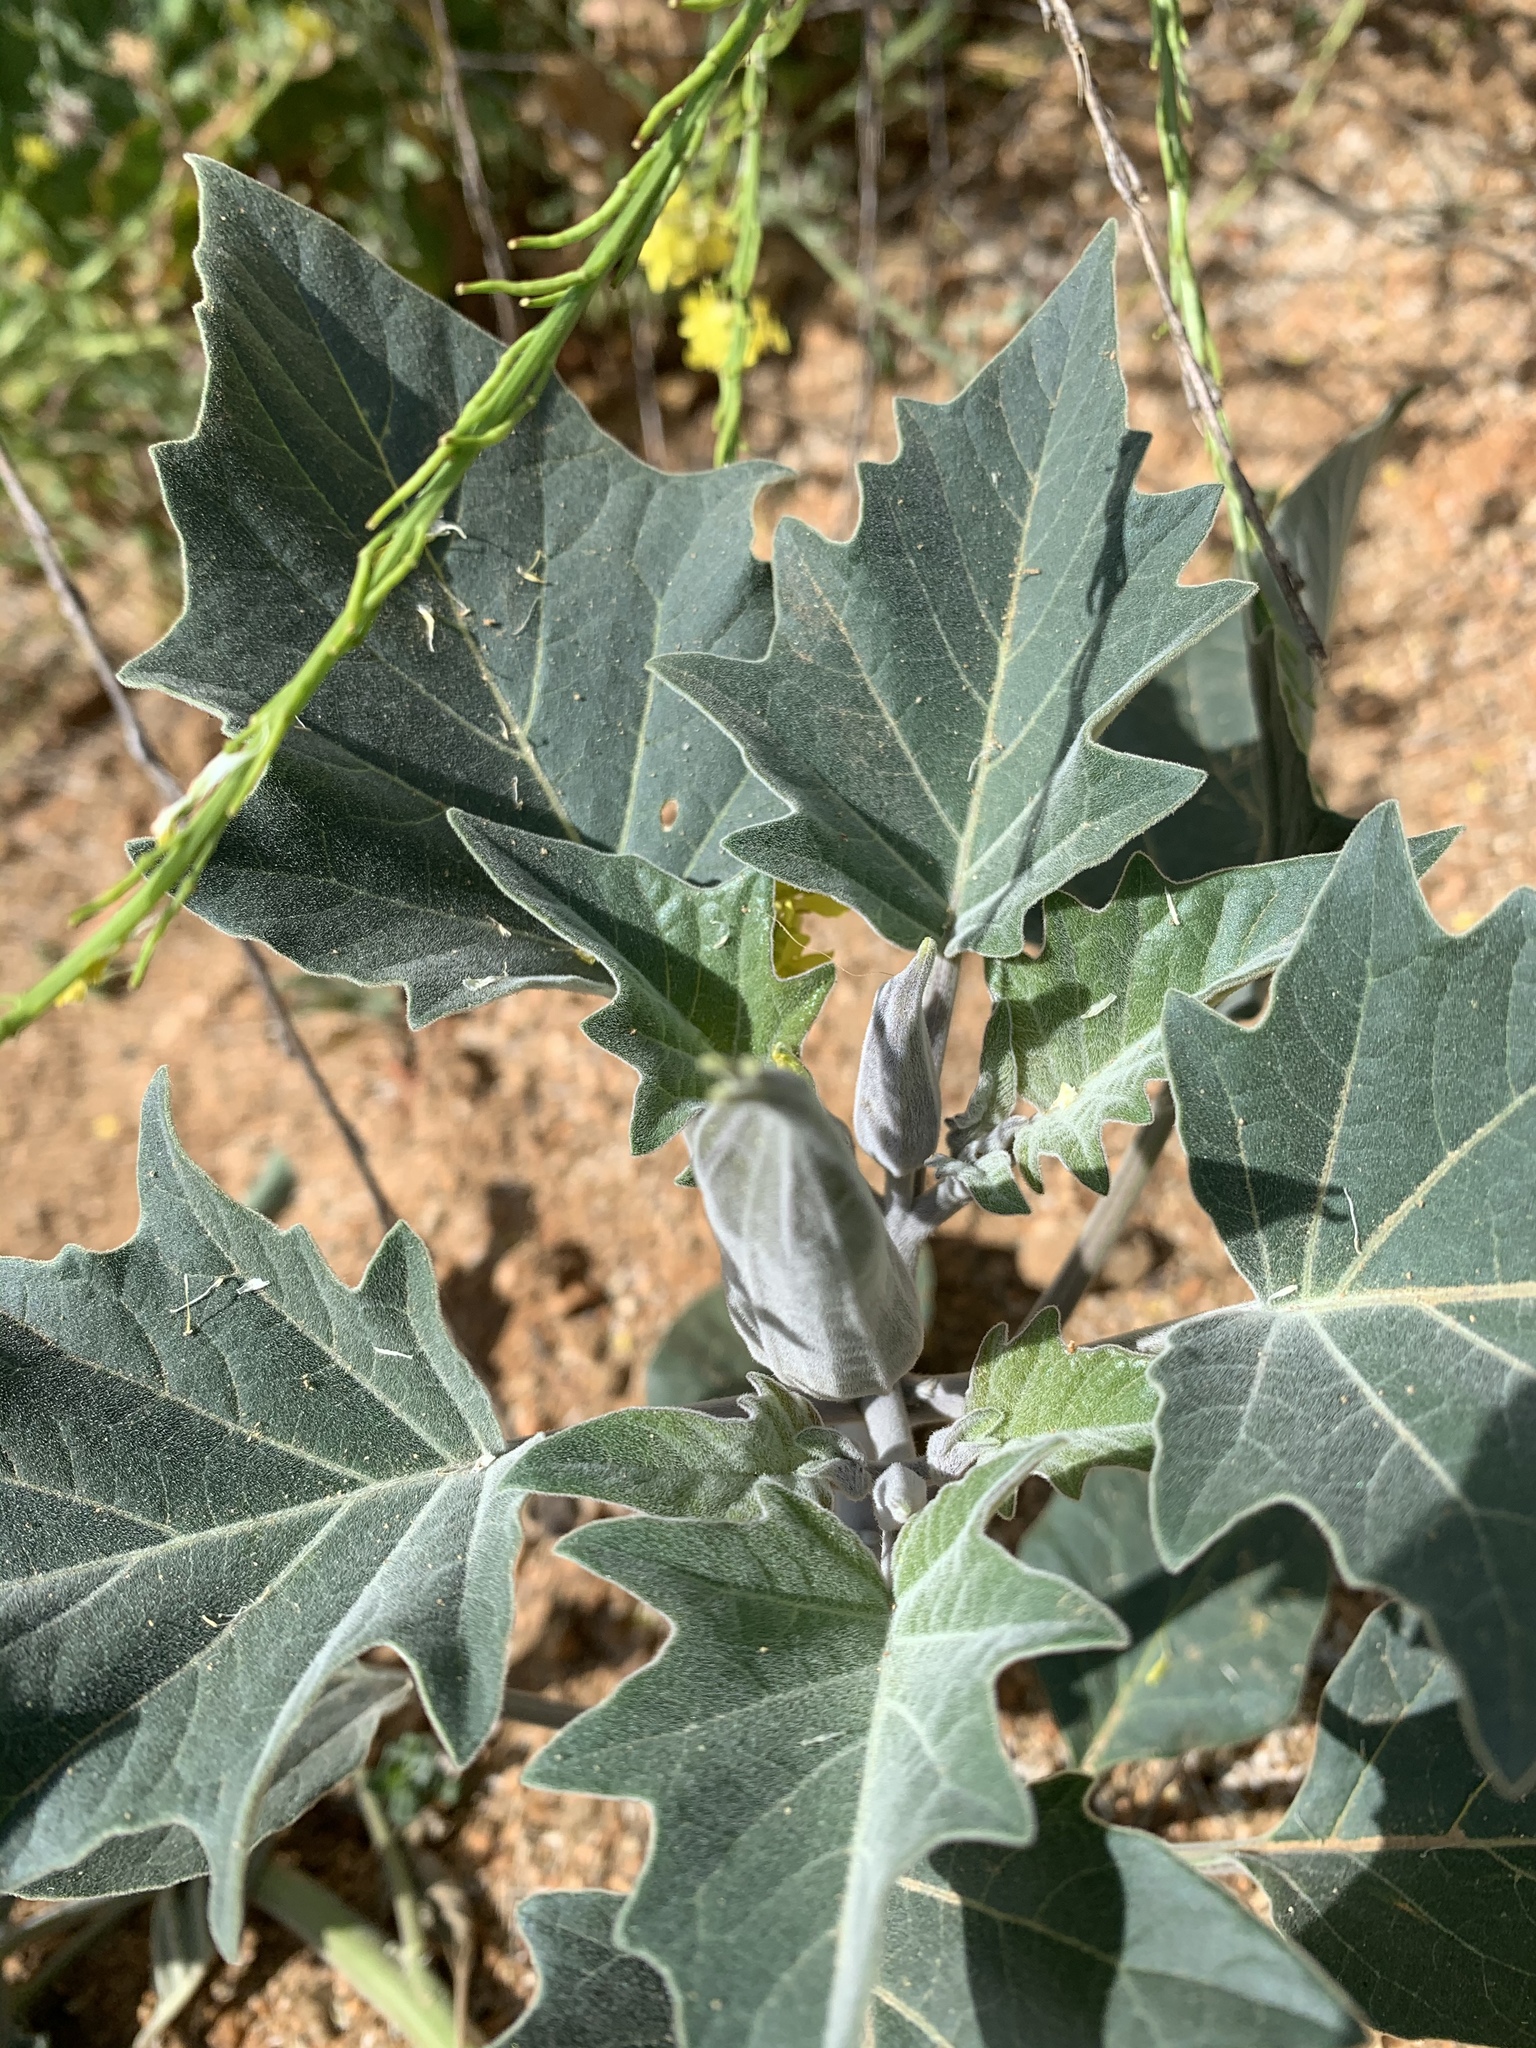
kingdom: Plantae
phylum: Tracheophyta
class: Magnoliopsida
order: Solanales
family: Solanaceae
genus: Datura
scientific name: Datura wrightii
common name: Sacred thorn-apple
